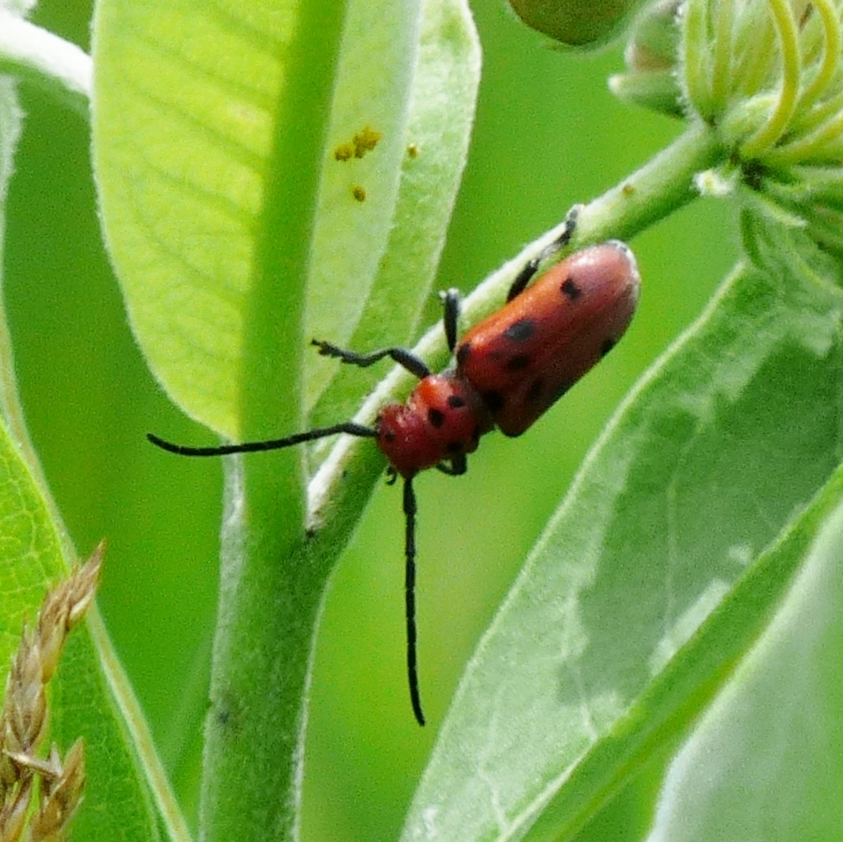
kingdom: Animalia
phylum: Arthropoda
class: Insecta
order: Coleoptera
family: Cerambycidae
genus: Tetraopes
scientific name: Tetraopes tetrophthalmus
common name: Red milkweed beetle
